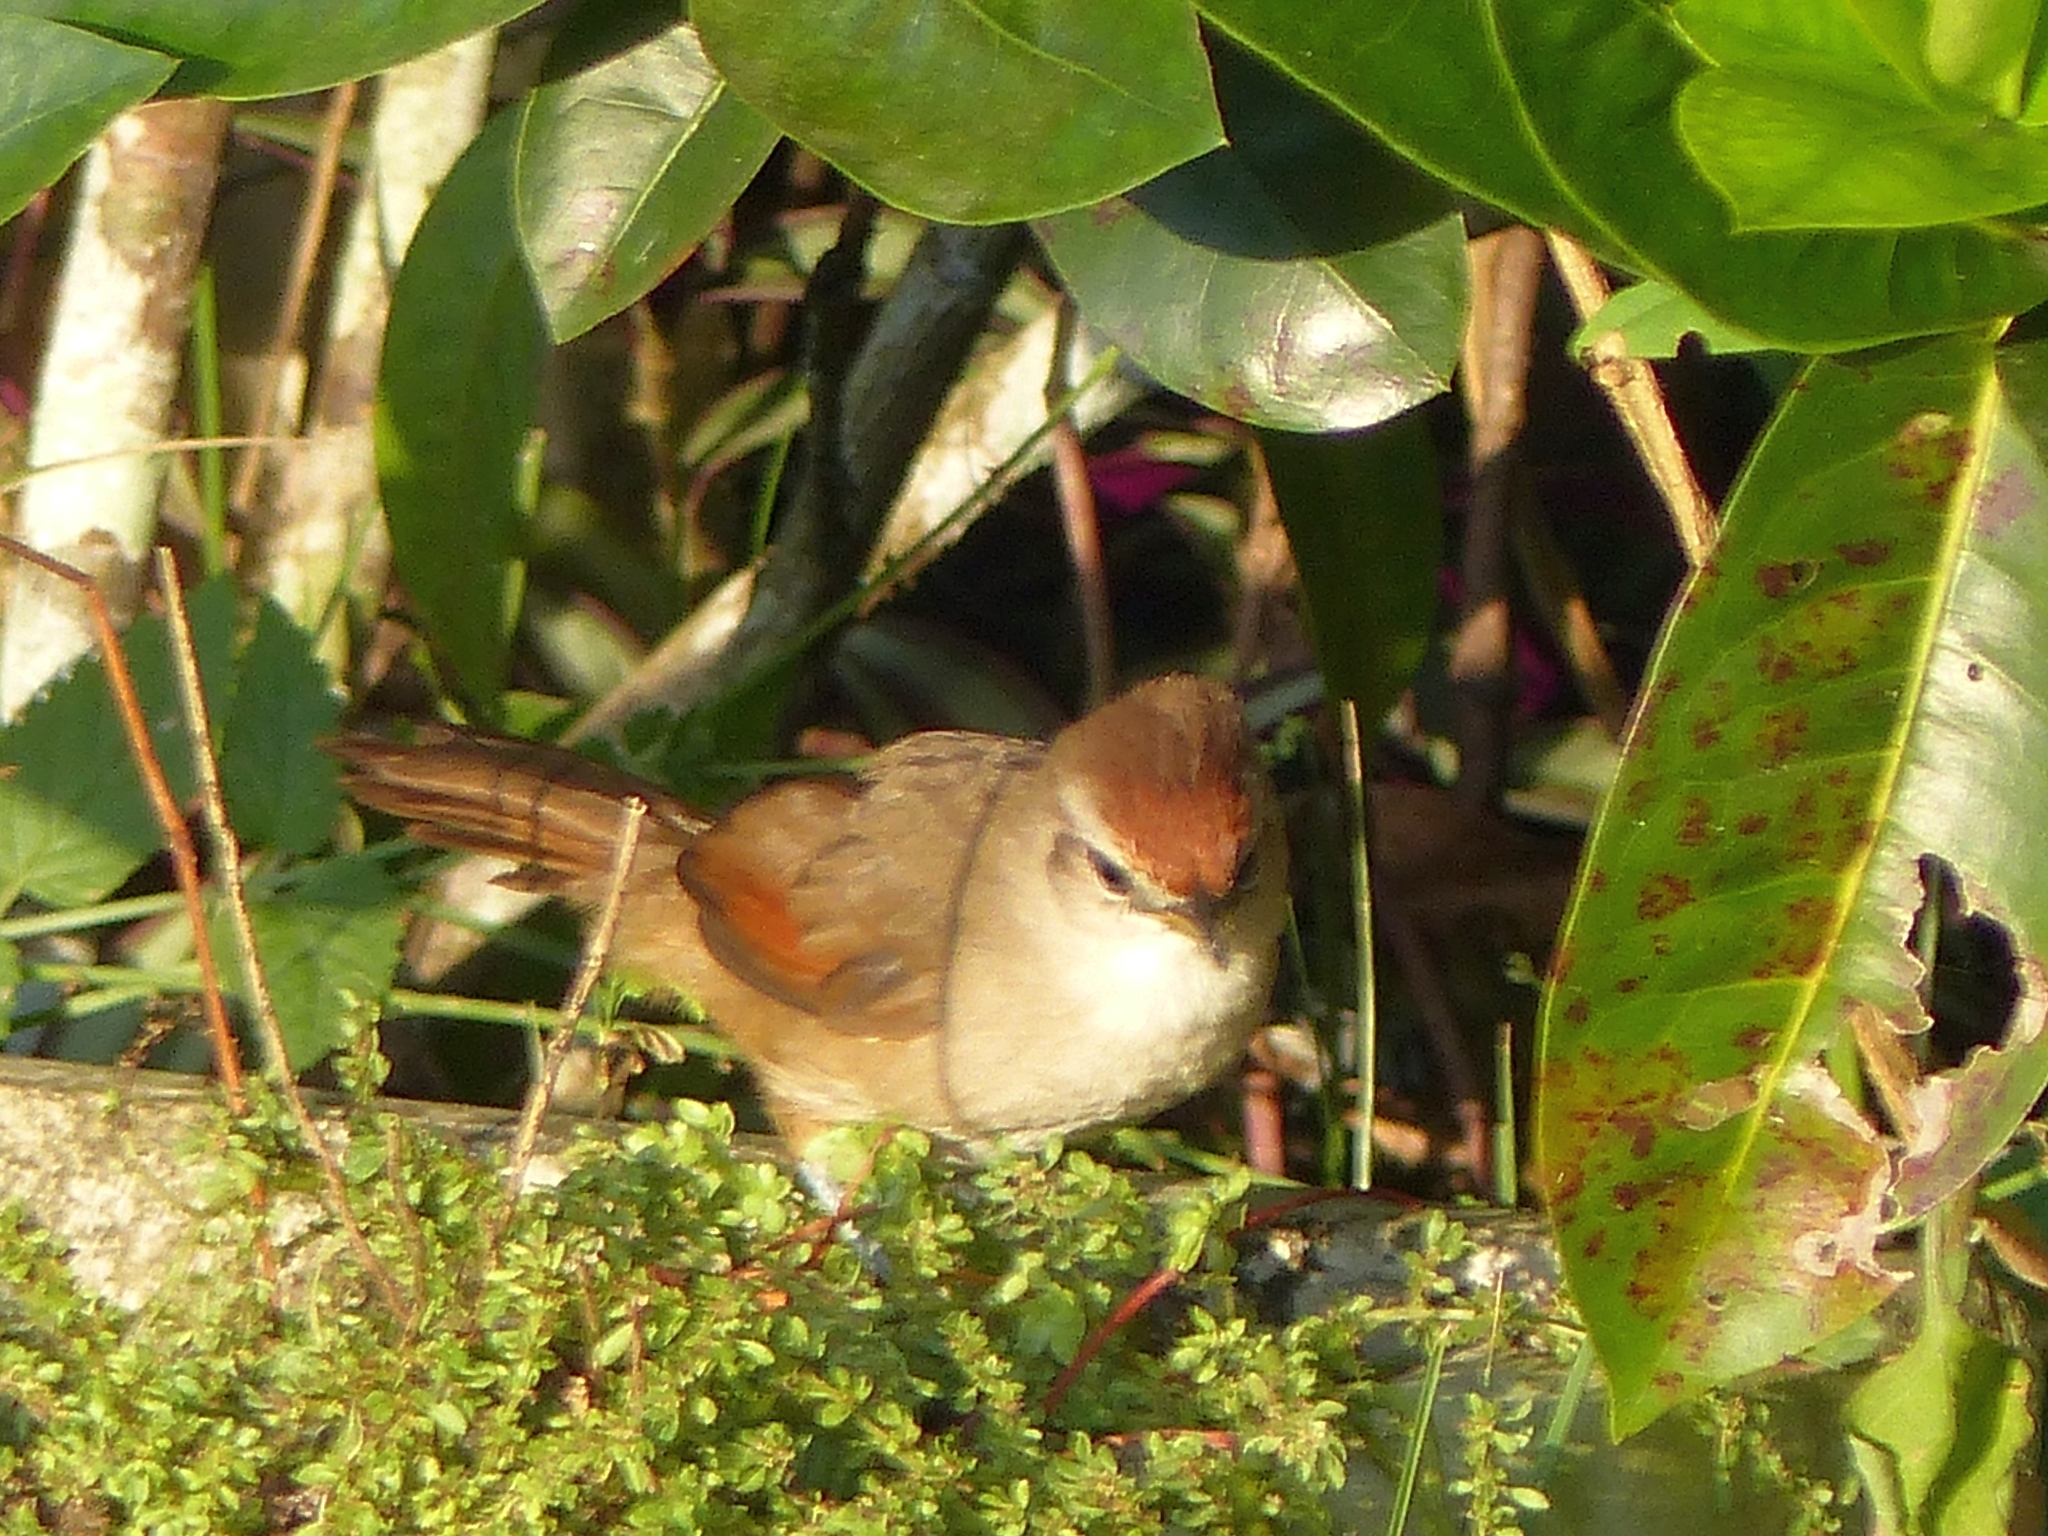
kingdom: Animalia
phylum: Chordata
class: Aves
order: Passeriformes
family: Furnariidae
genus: Certhiaxis
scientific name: Certhiaxis cinnamomeus
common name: Yellow-chinned spinetail
